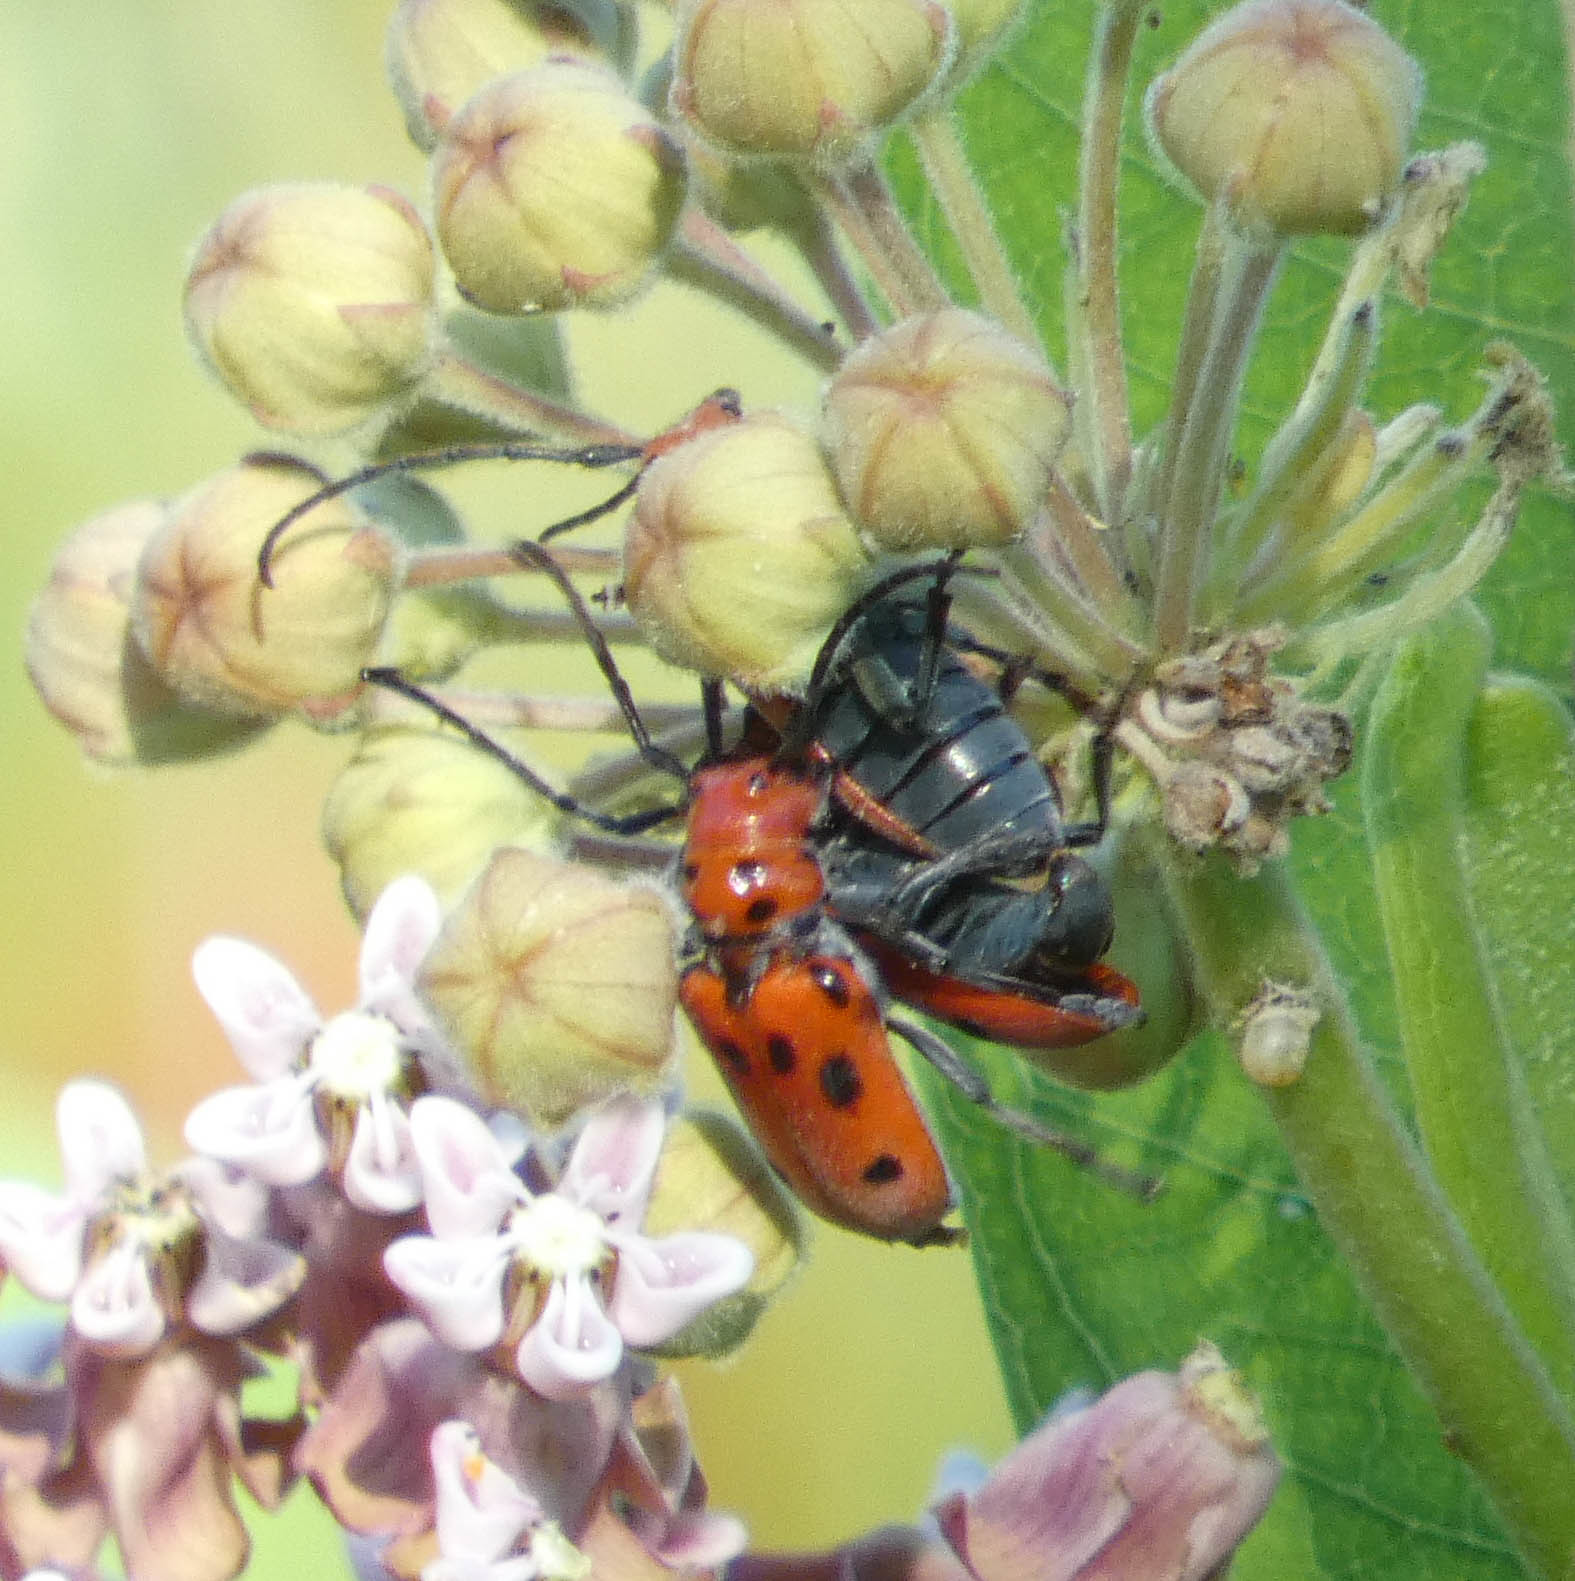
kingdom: Animalia
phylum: Arthropoda
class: Insecta
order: Coleoptera
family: Cerambycidae
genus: Tetraopes
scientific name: Tetraopes tetrophthalmus
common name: Red milkweed beetle
